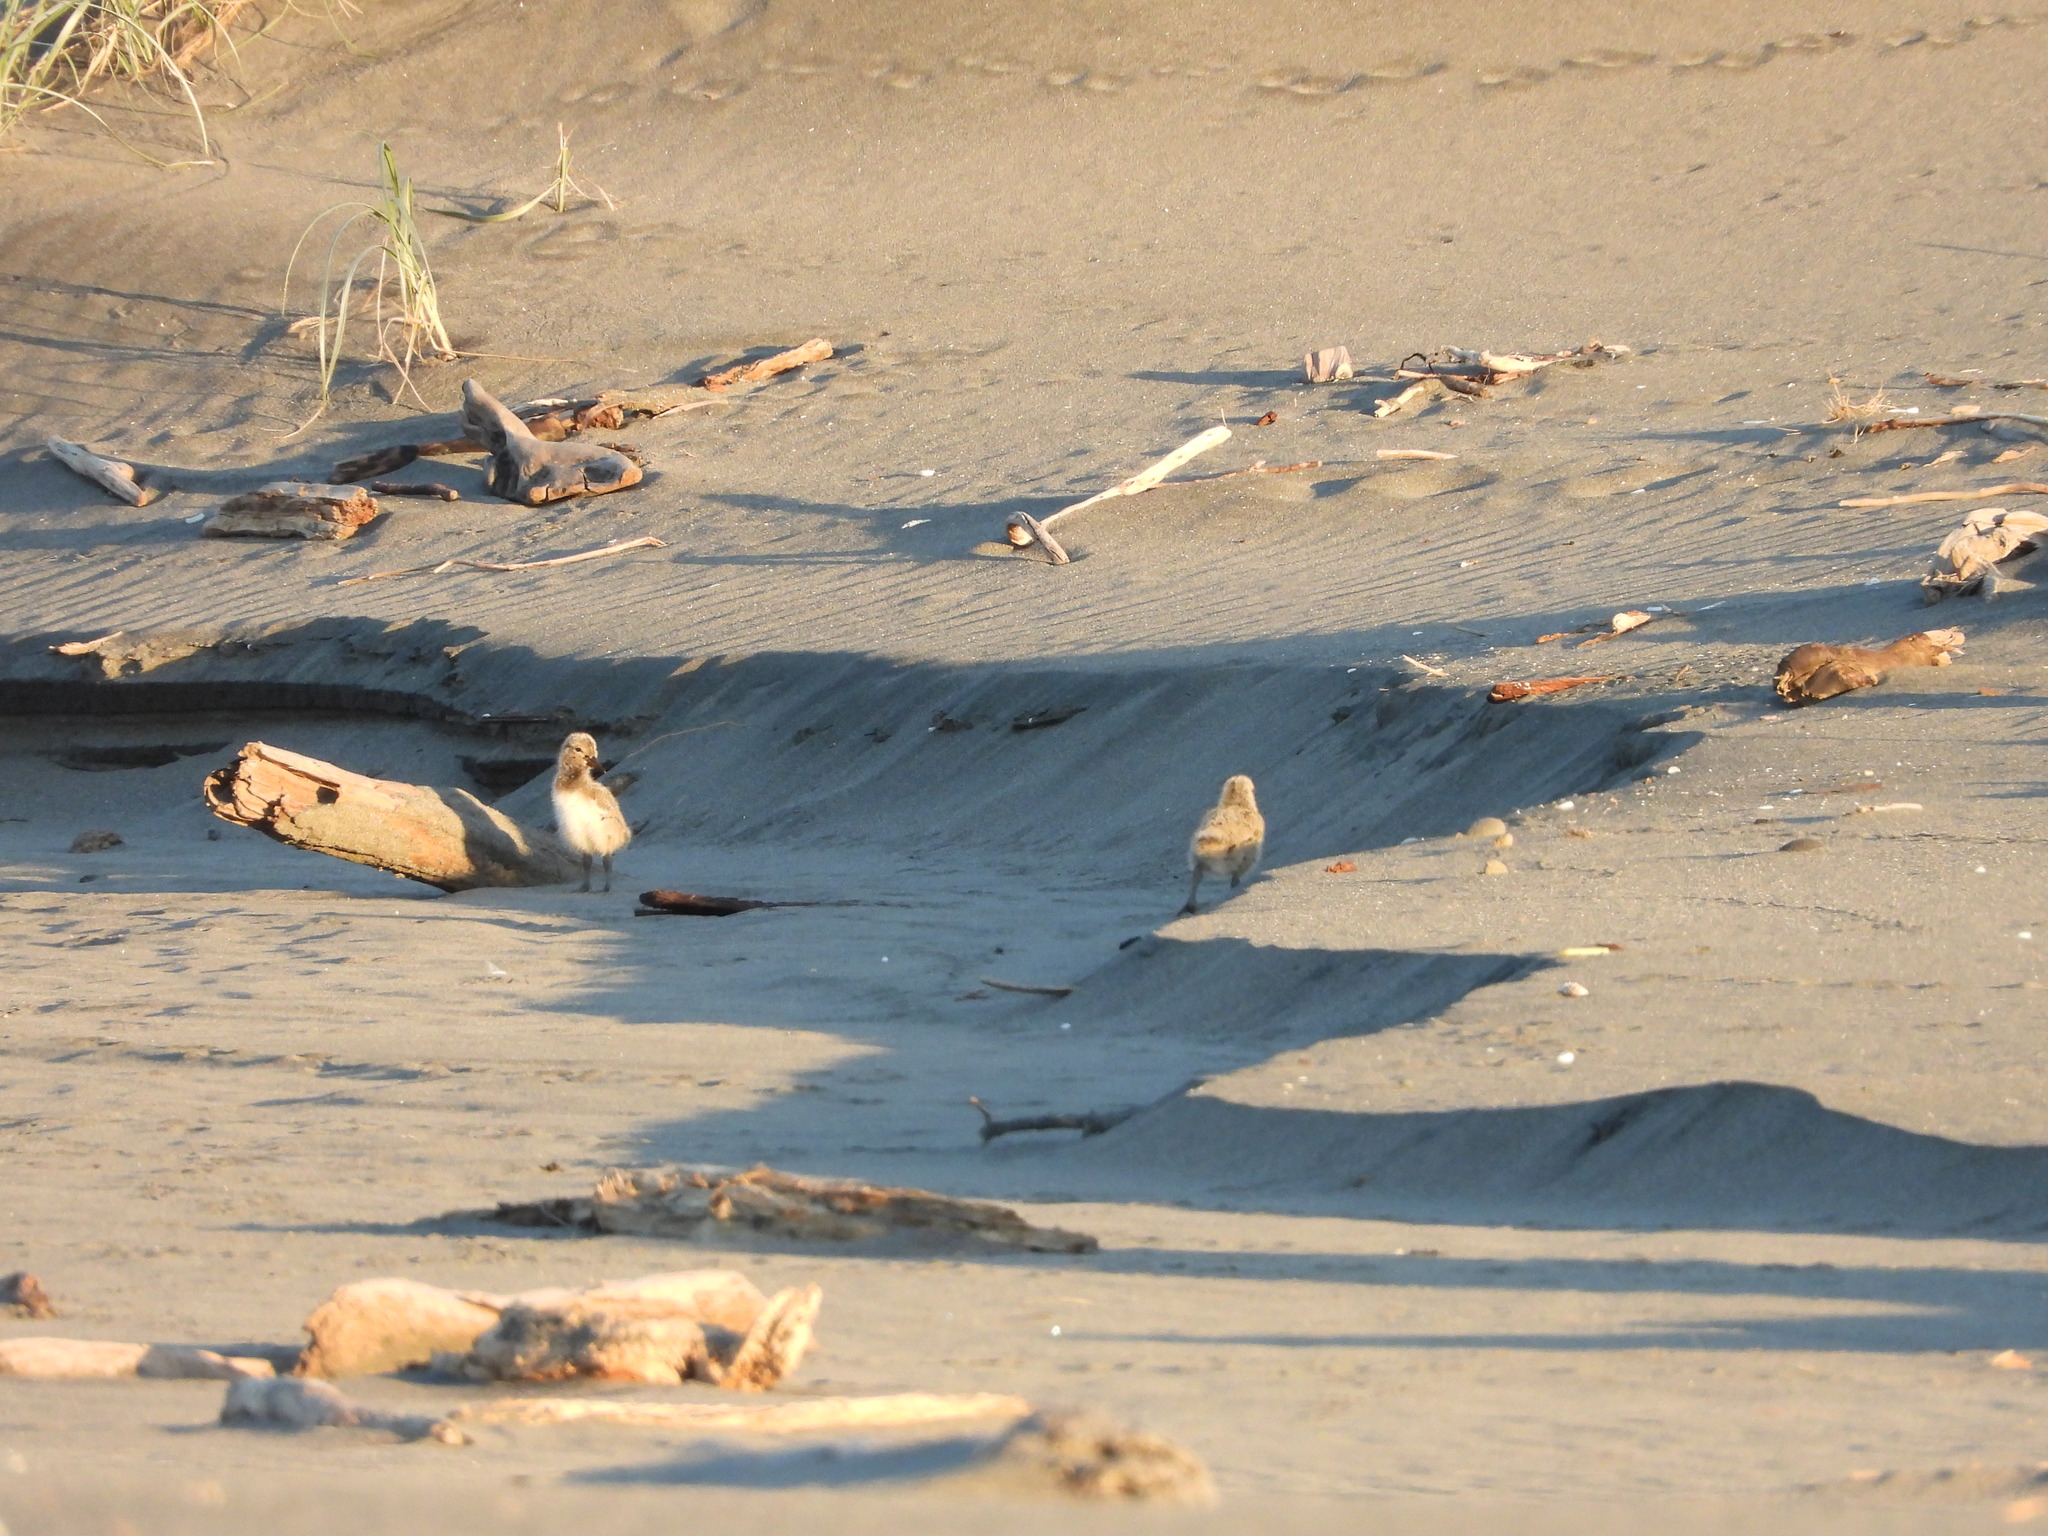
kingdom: Animalia
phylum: Chordata
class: Aves
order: Charadriiformes
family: Haematopodidae
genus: Haematopus
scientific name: Haematopus unicolor
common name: Variable oystercatcher
